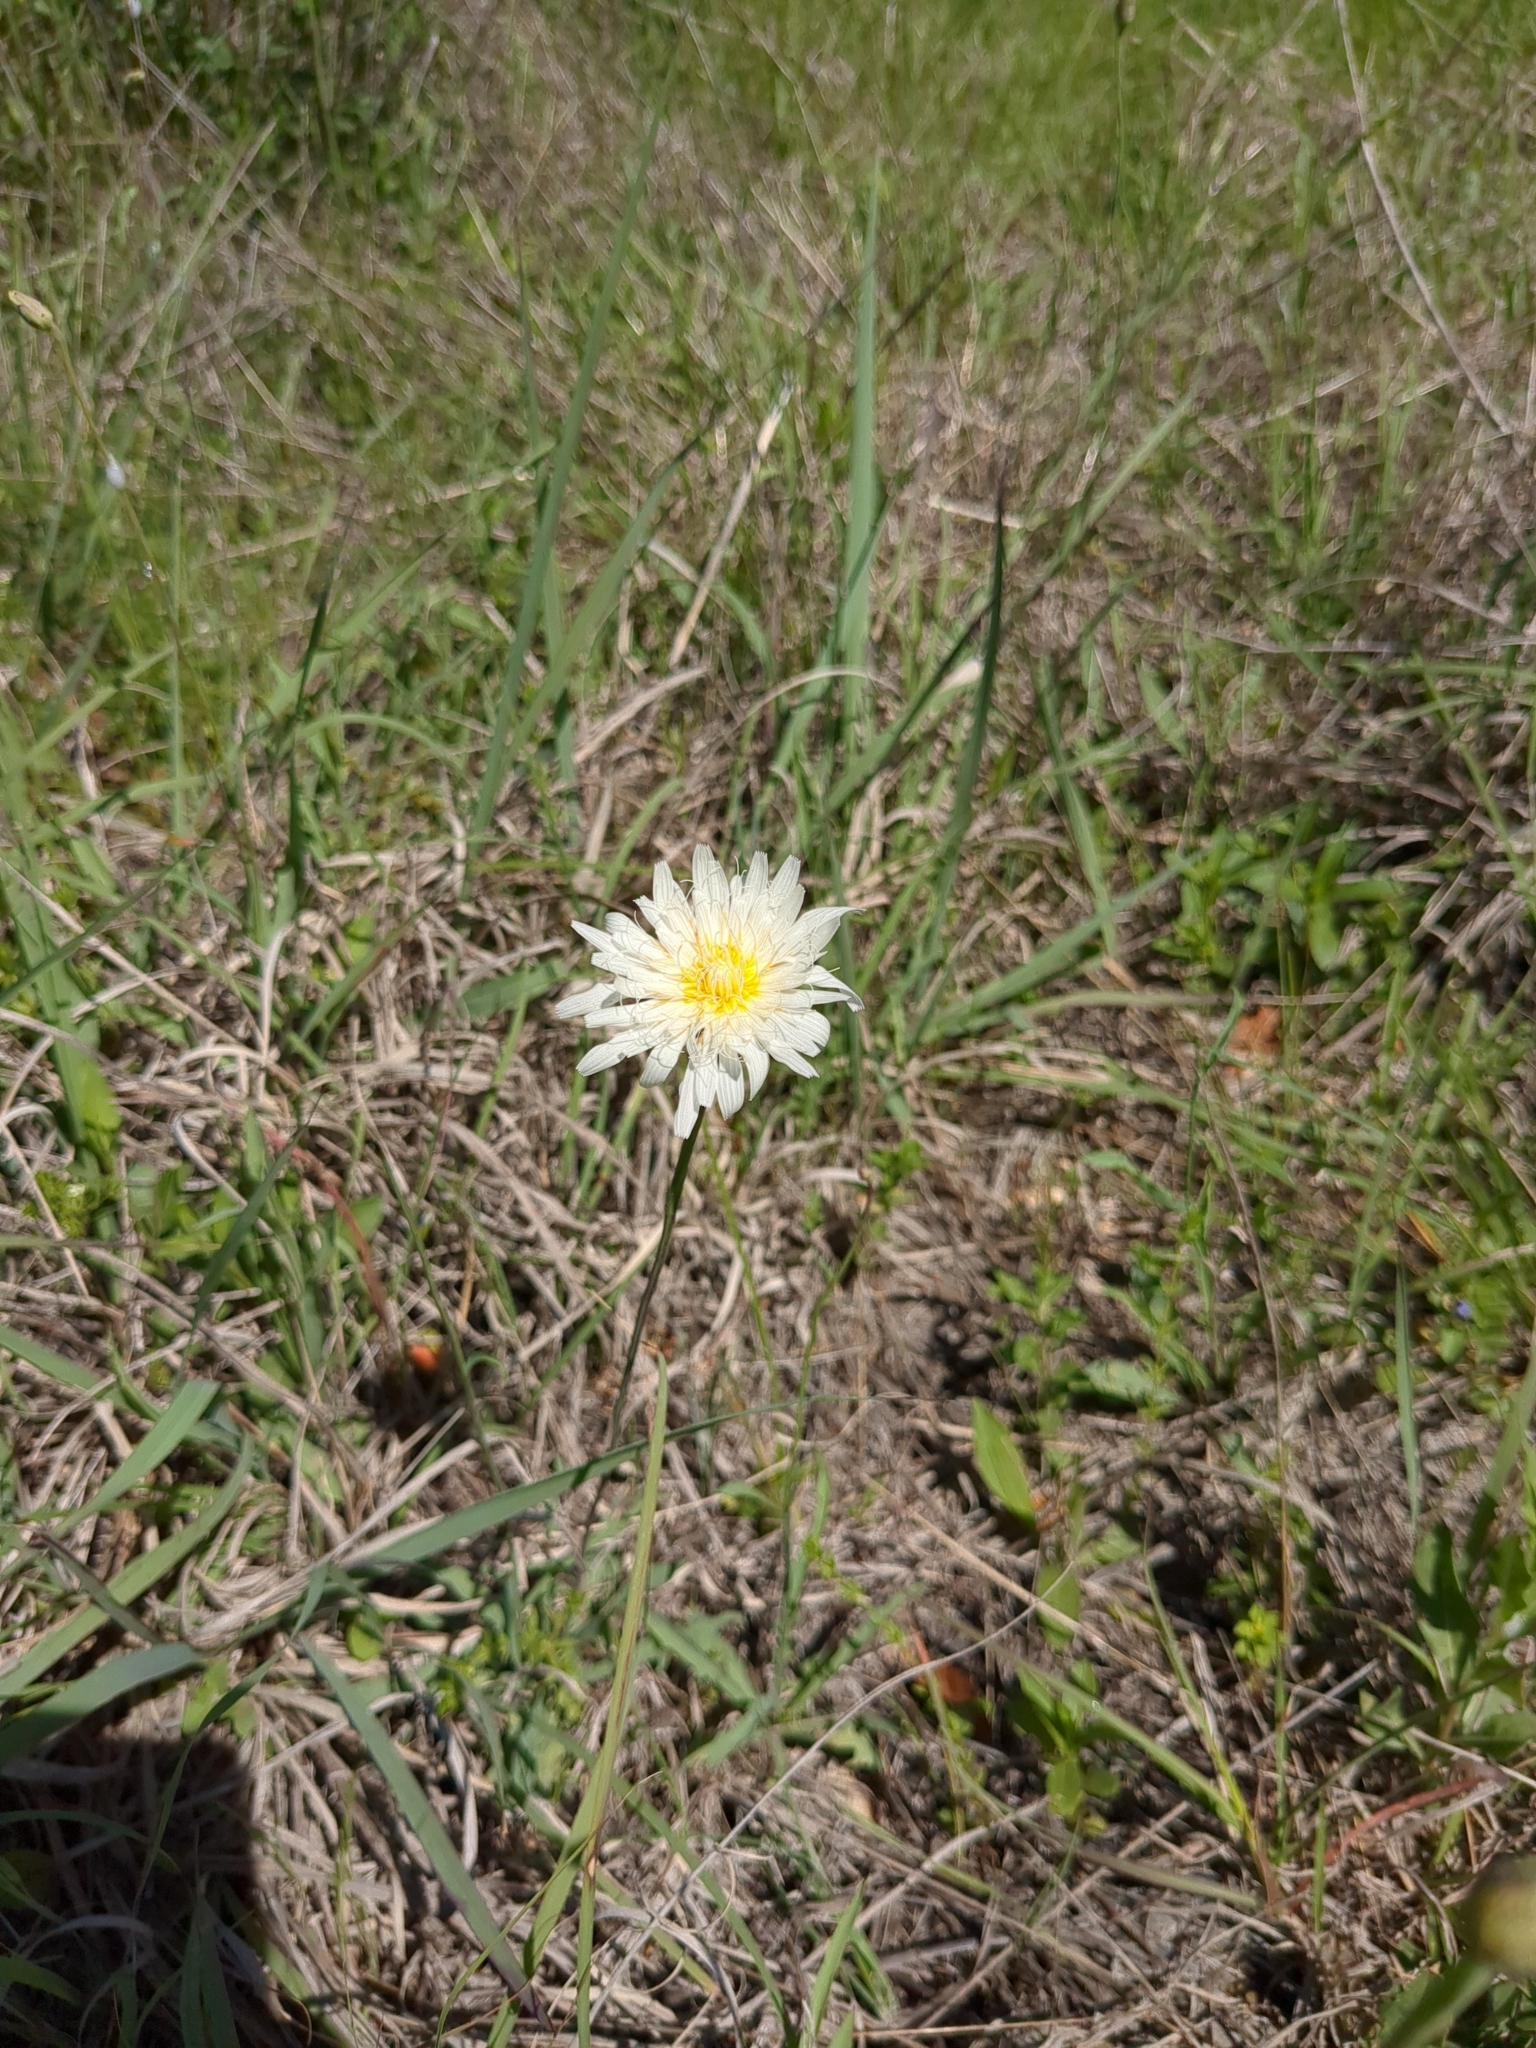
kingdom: Plantae
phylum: Tracheophyta
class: Magnoliopsida
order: Asterales
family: Asteraceae
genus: Pinaropappus
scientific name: Pinaropappus roseus
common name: Rock-lettuce
